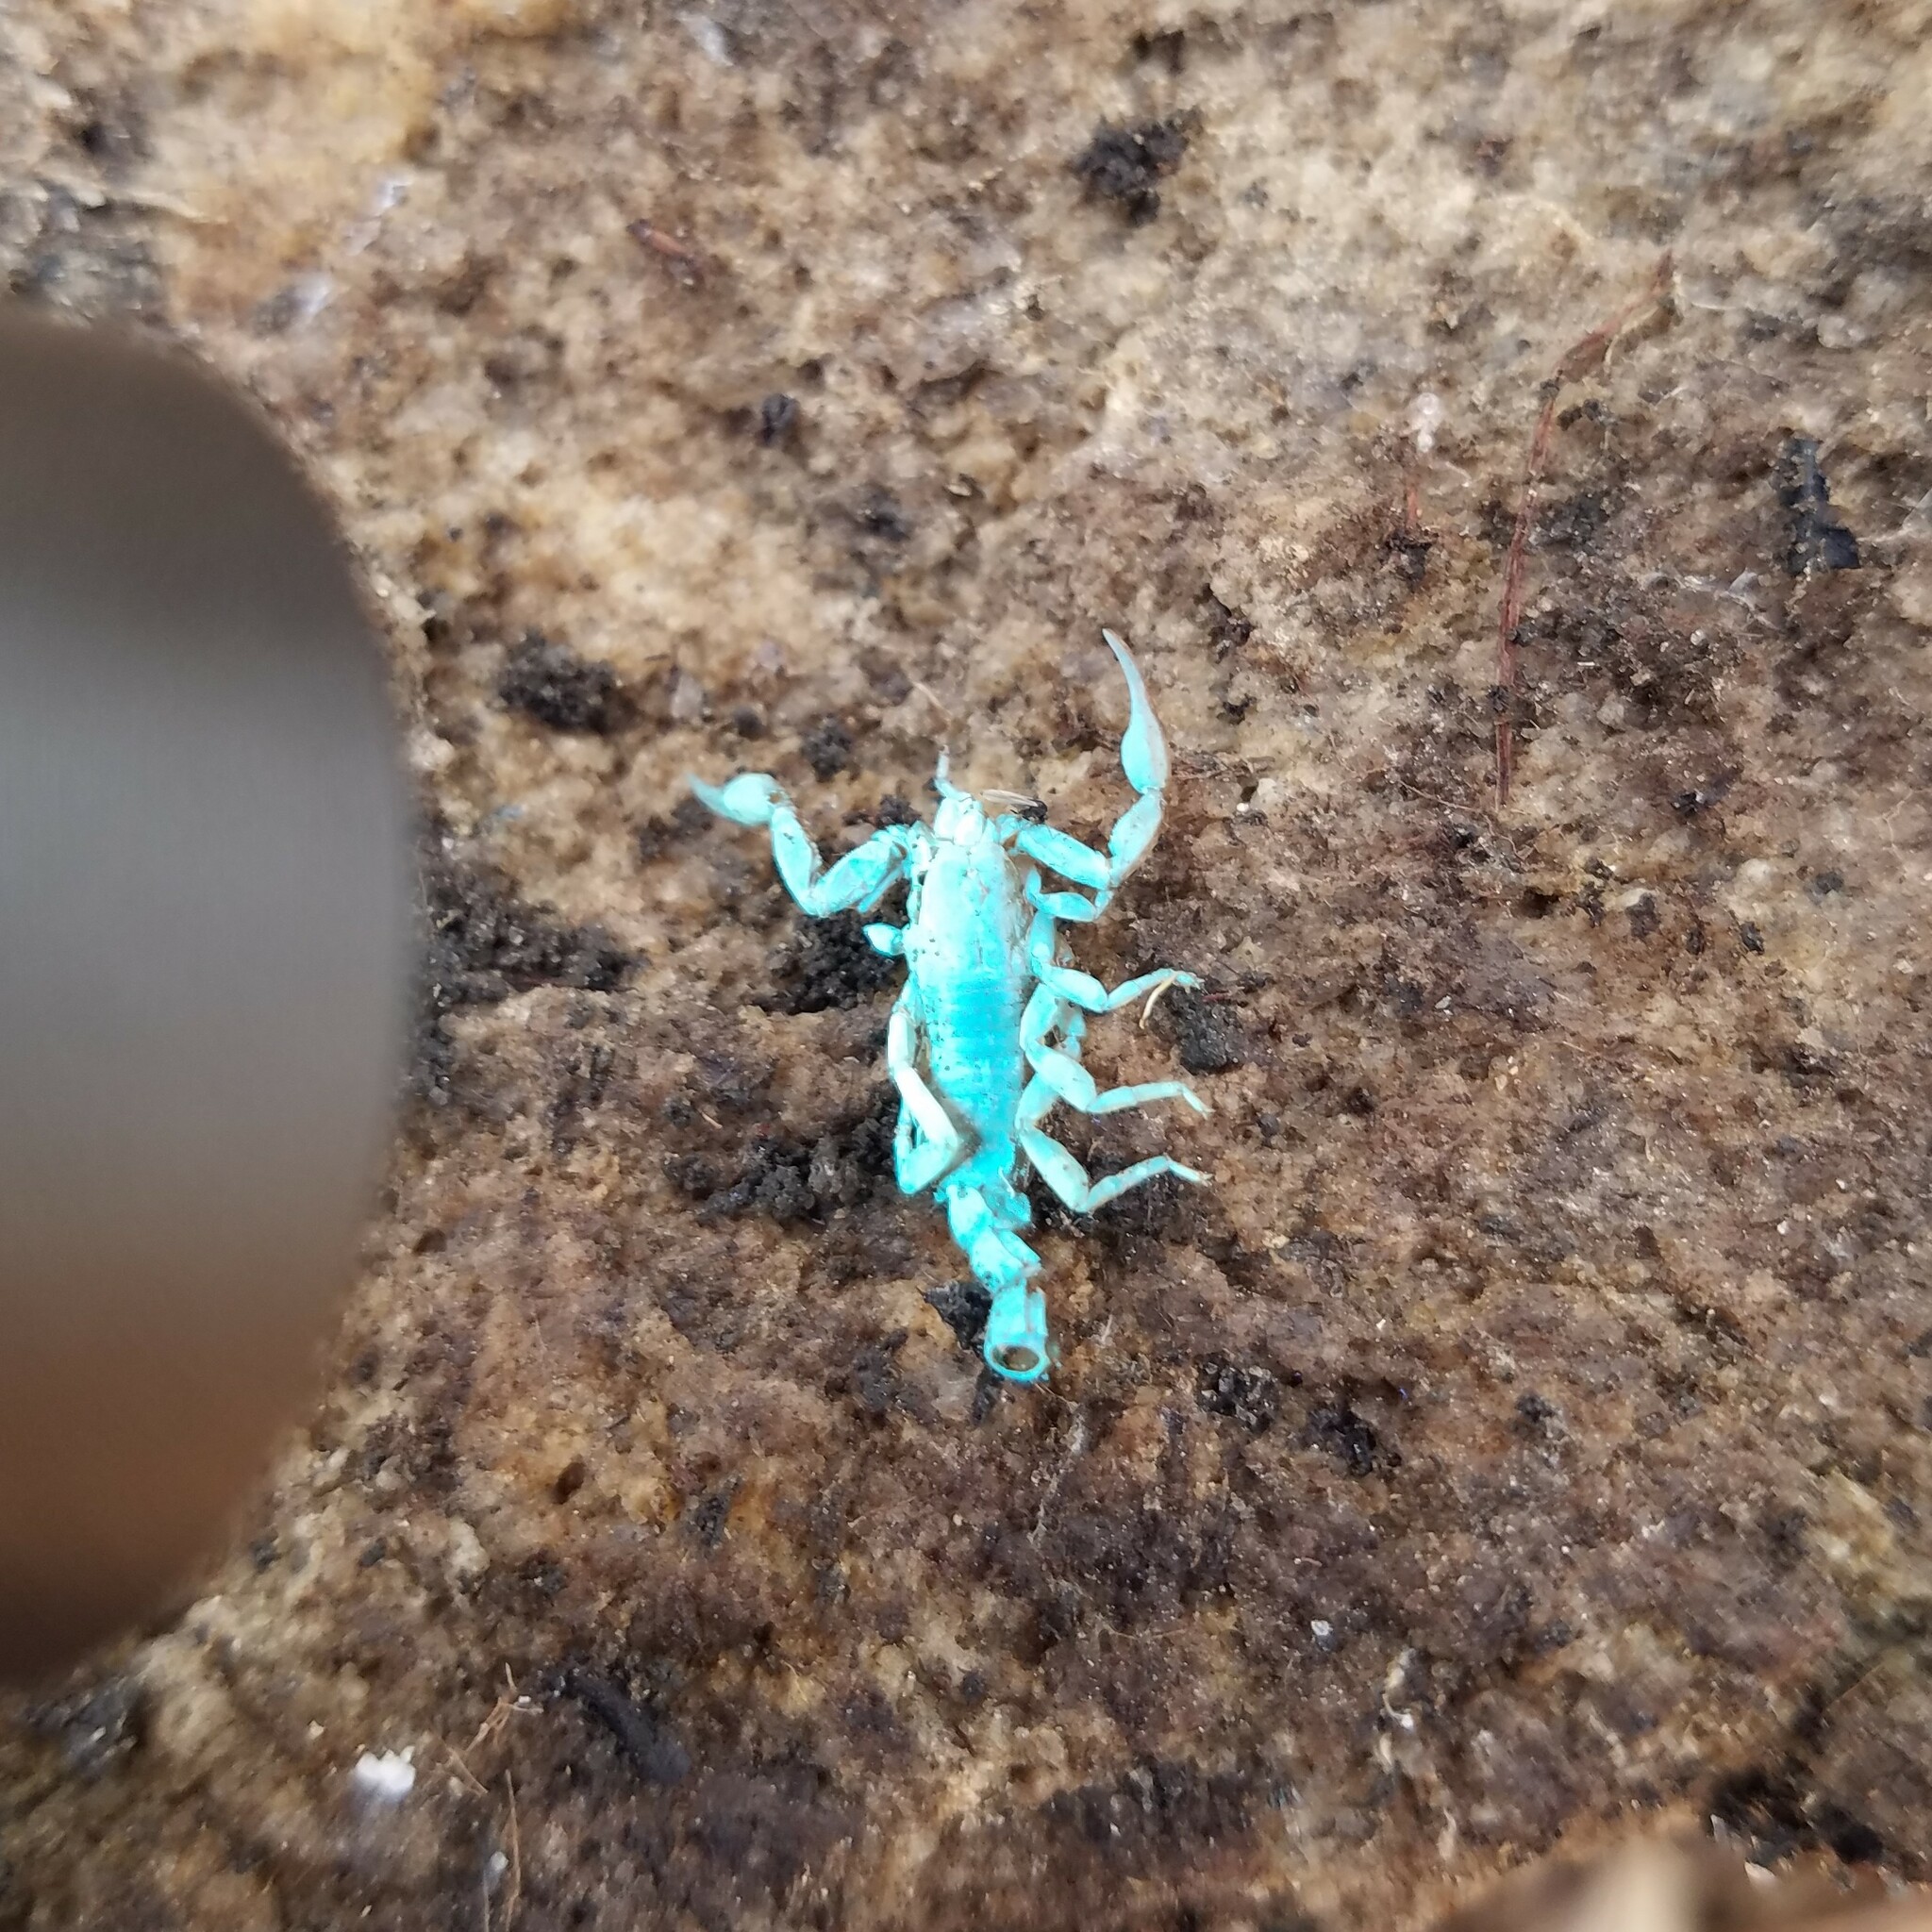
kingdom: Animalia
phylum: Arthropoda
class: Arachnida
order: Scorpiones
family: Vaejovidae
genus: Vaejovis
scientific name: Vaejovis carolinianus
